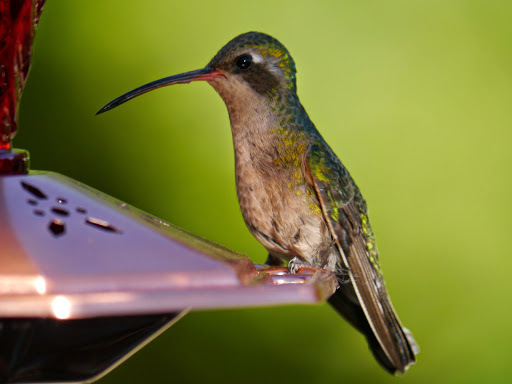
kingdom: Animalia
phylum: Chordata
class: Aves
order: Apodiformes
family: Trochilidae
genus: Cynanthus
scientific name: Cynanthus latirostris
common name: Broad-billed hummingbird
